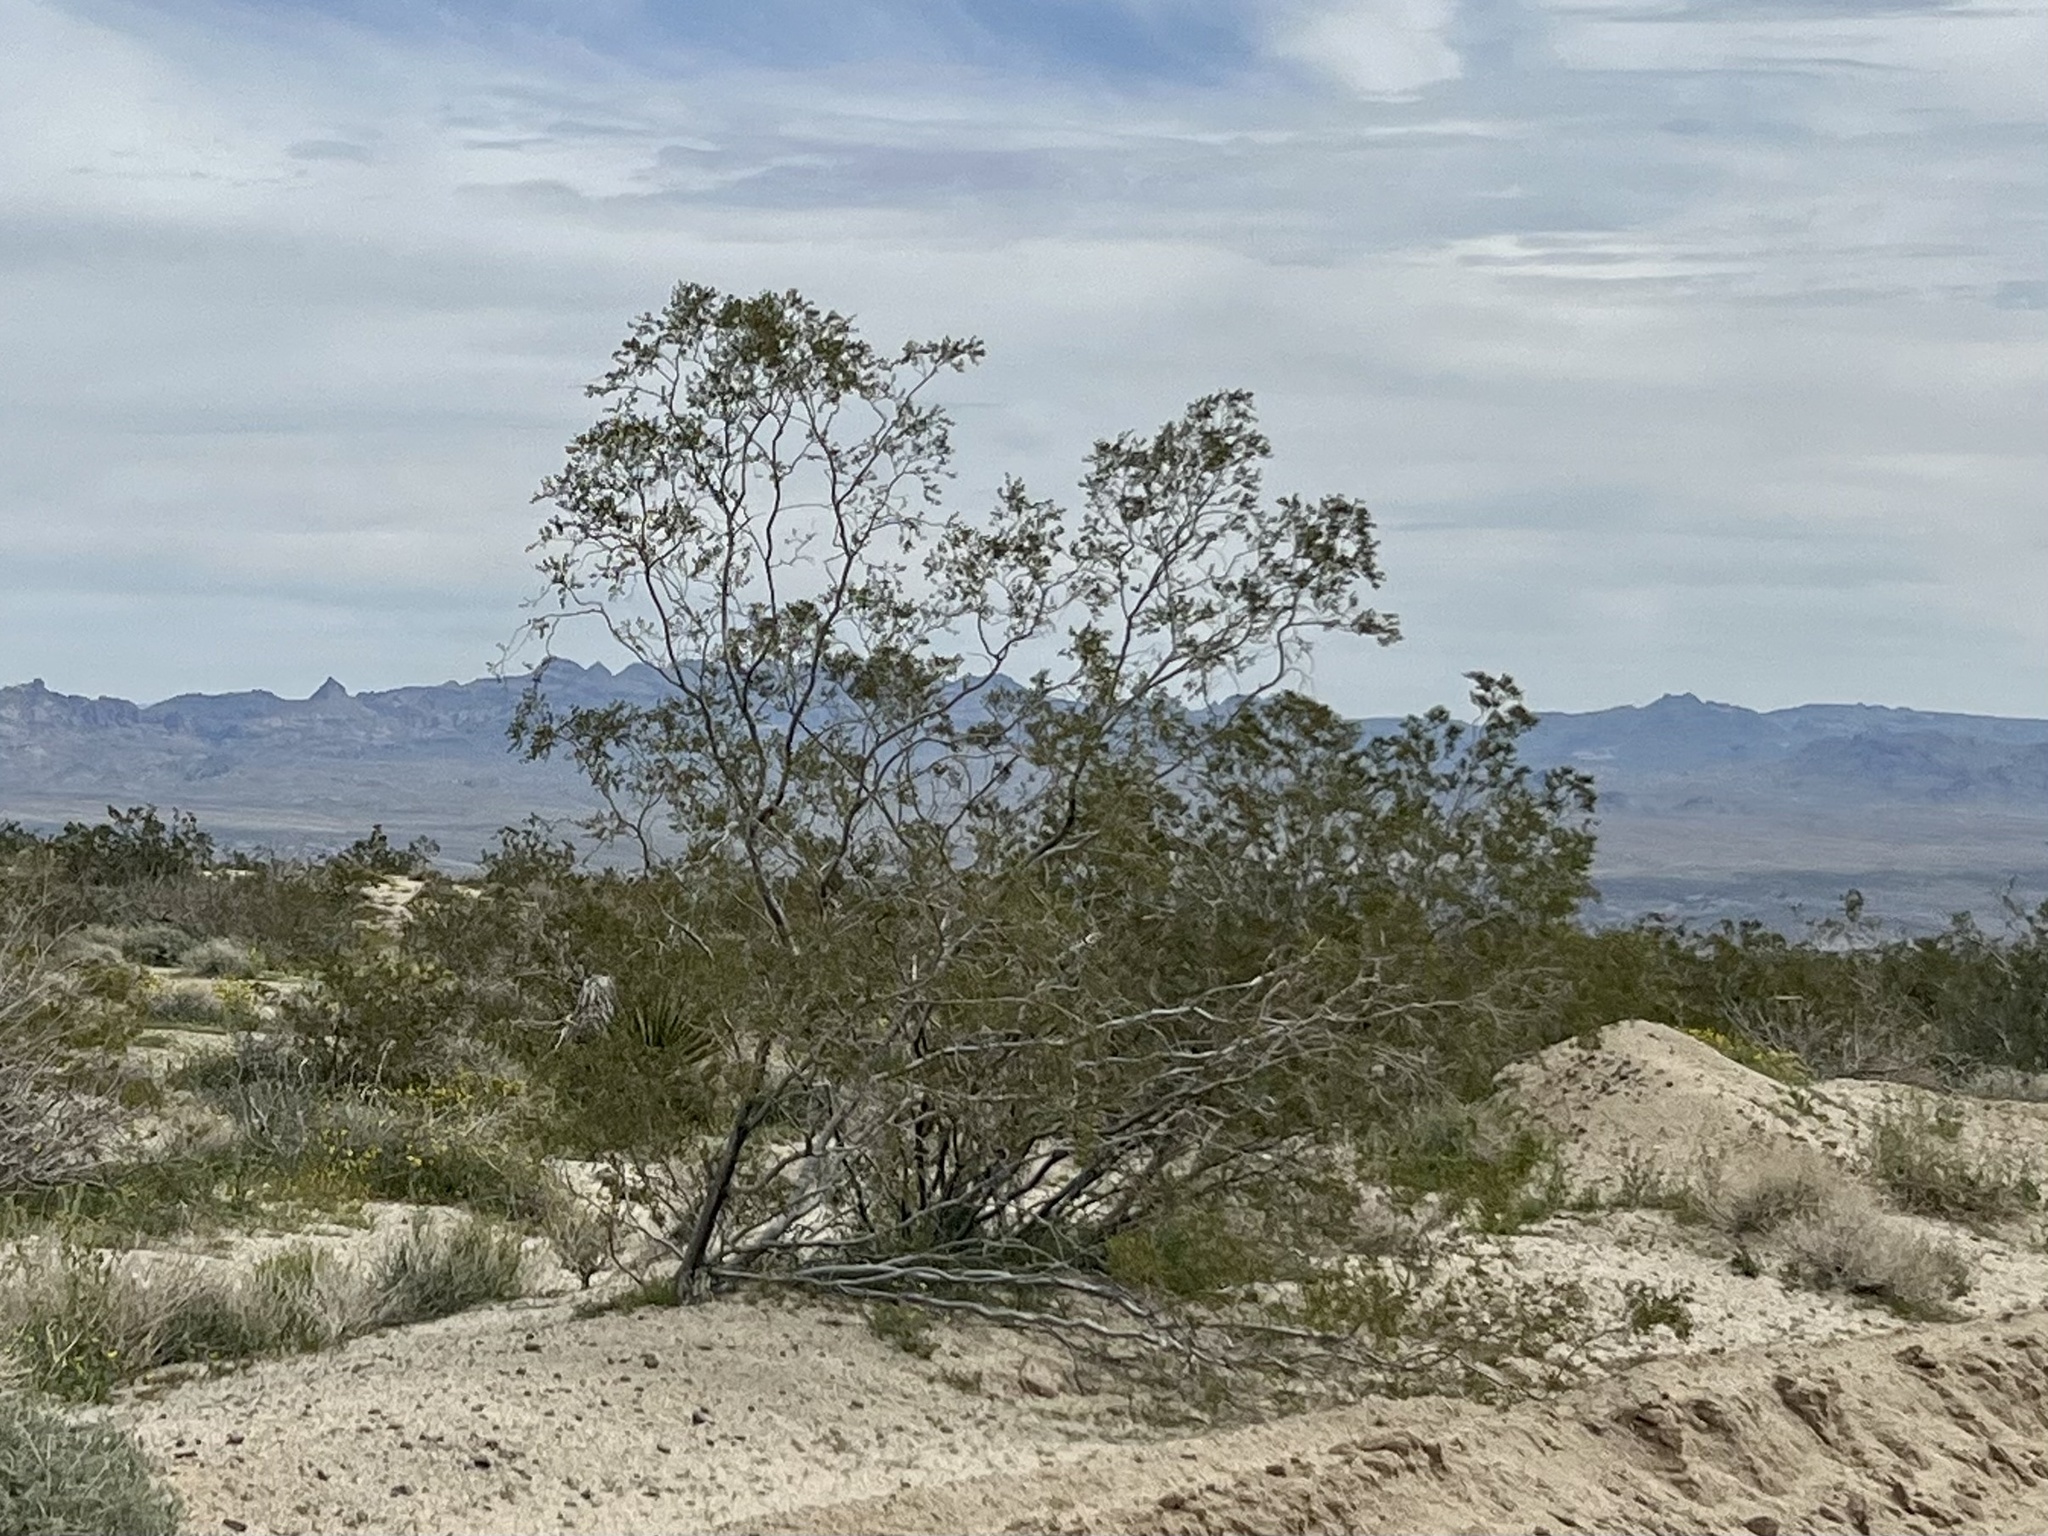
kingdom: Plantae
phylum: Tracheophyta
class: Magnoliopsida
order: Zygophyllales
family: Zygophyllaceae
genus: Larrea
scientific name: Larrea tridentata
